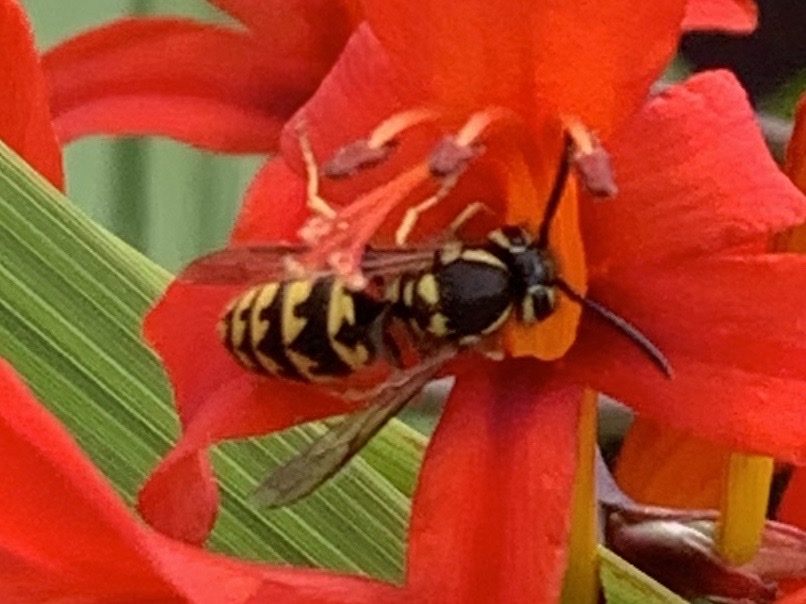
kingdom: Animalia
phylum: Arthropoda
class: Insecta
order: Hymenoptera
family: Vespidae
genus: Vespula
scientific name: Vespula pensylvanica
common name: Western yellowjacket
